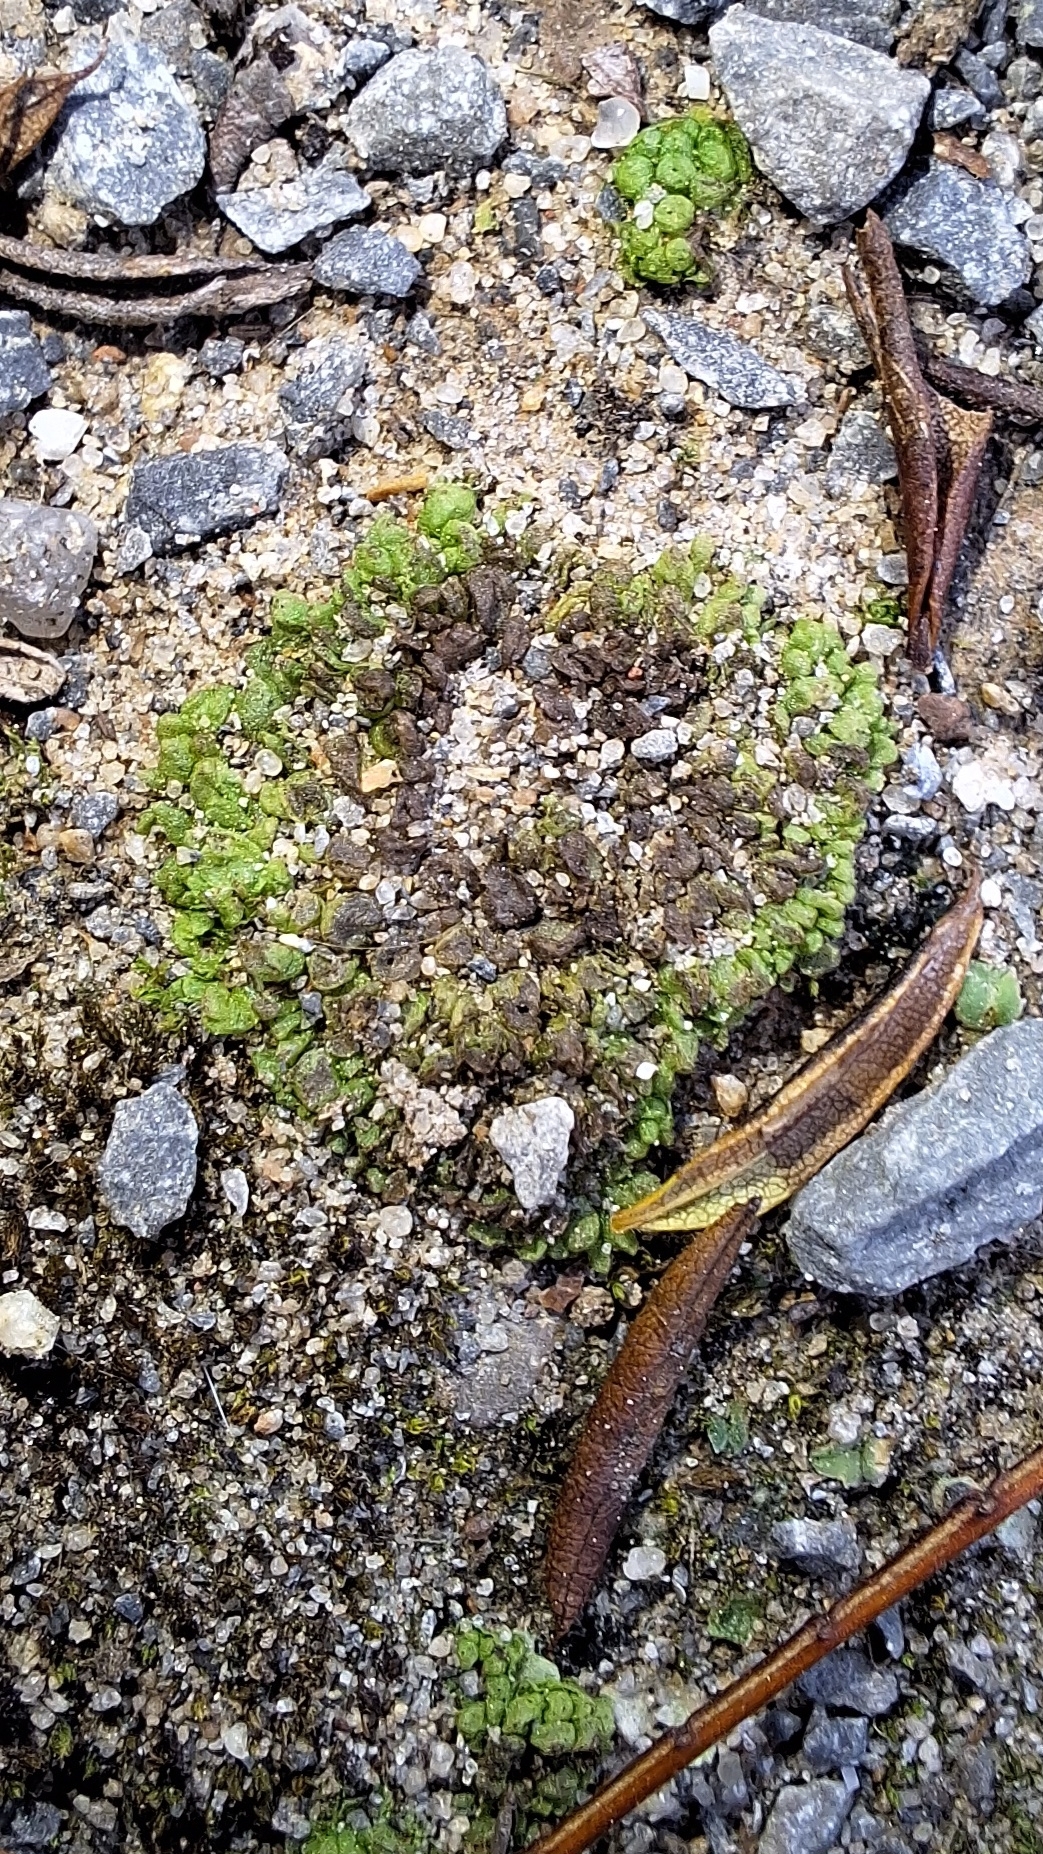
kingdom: Plantae
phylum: Marchantiophyta
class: Marchantiopsida
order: Sphaerocarpales
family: Sphaerocarpaceae
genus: Sphaerocarpos
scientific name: Sphaerocarpos texanus
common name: Texas balloonwort
